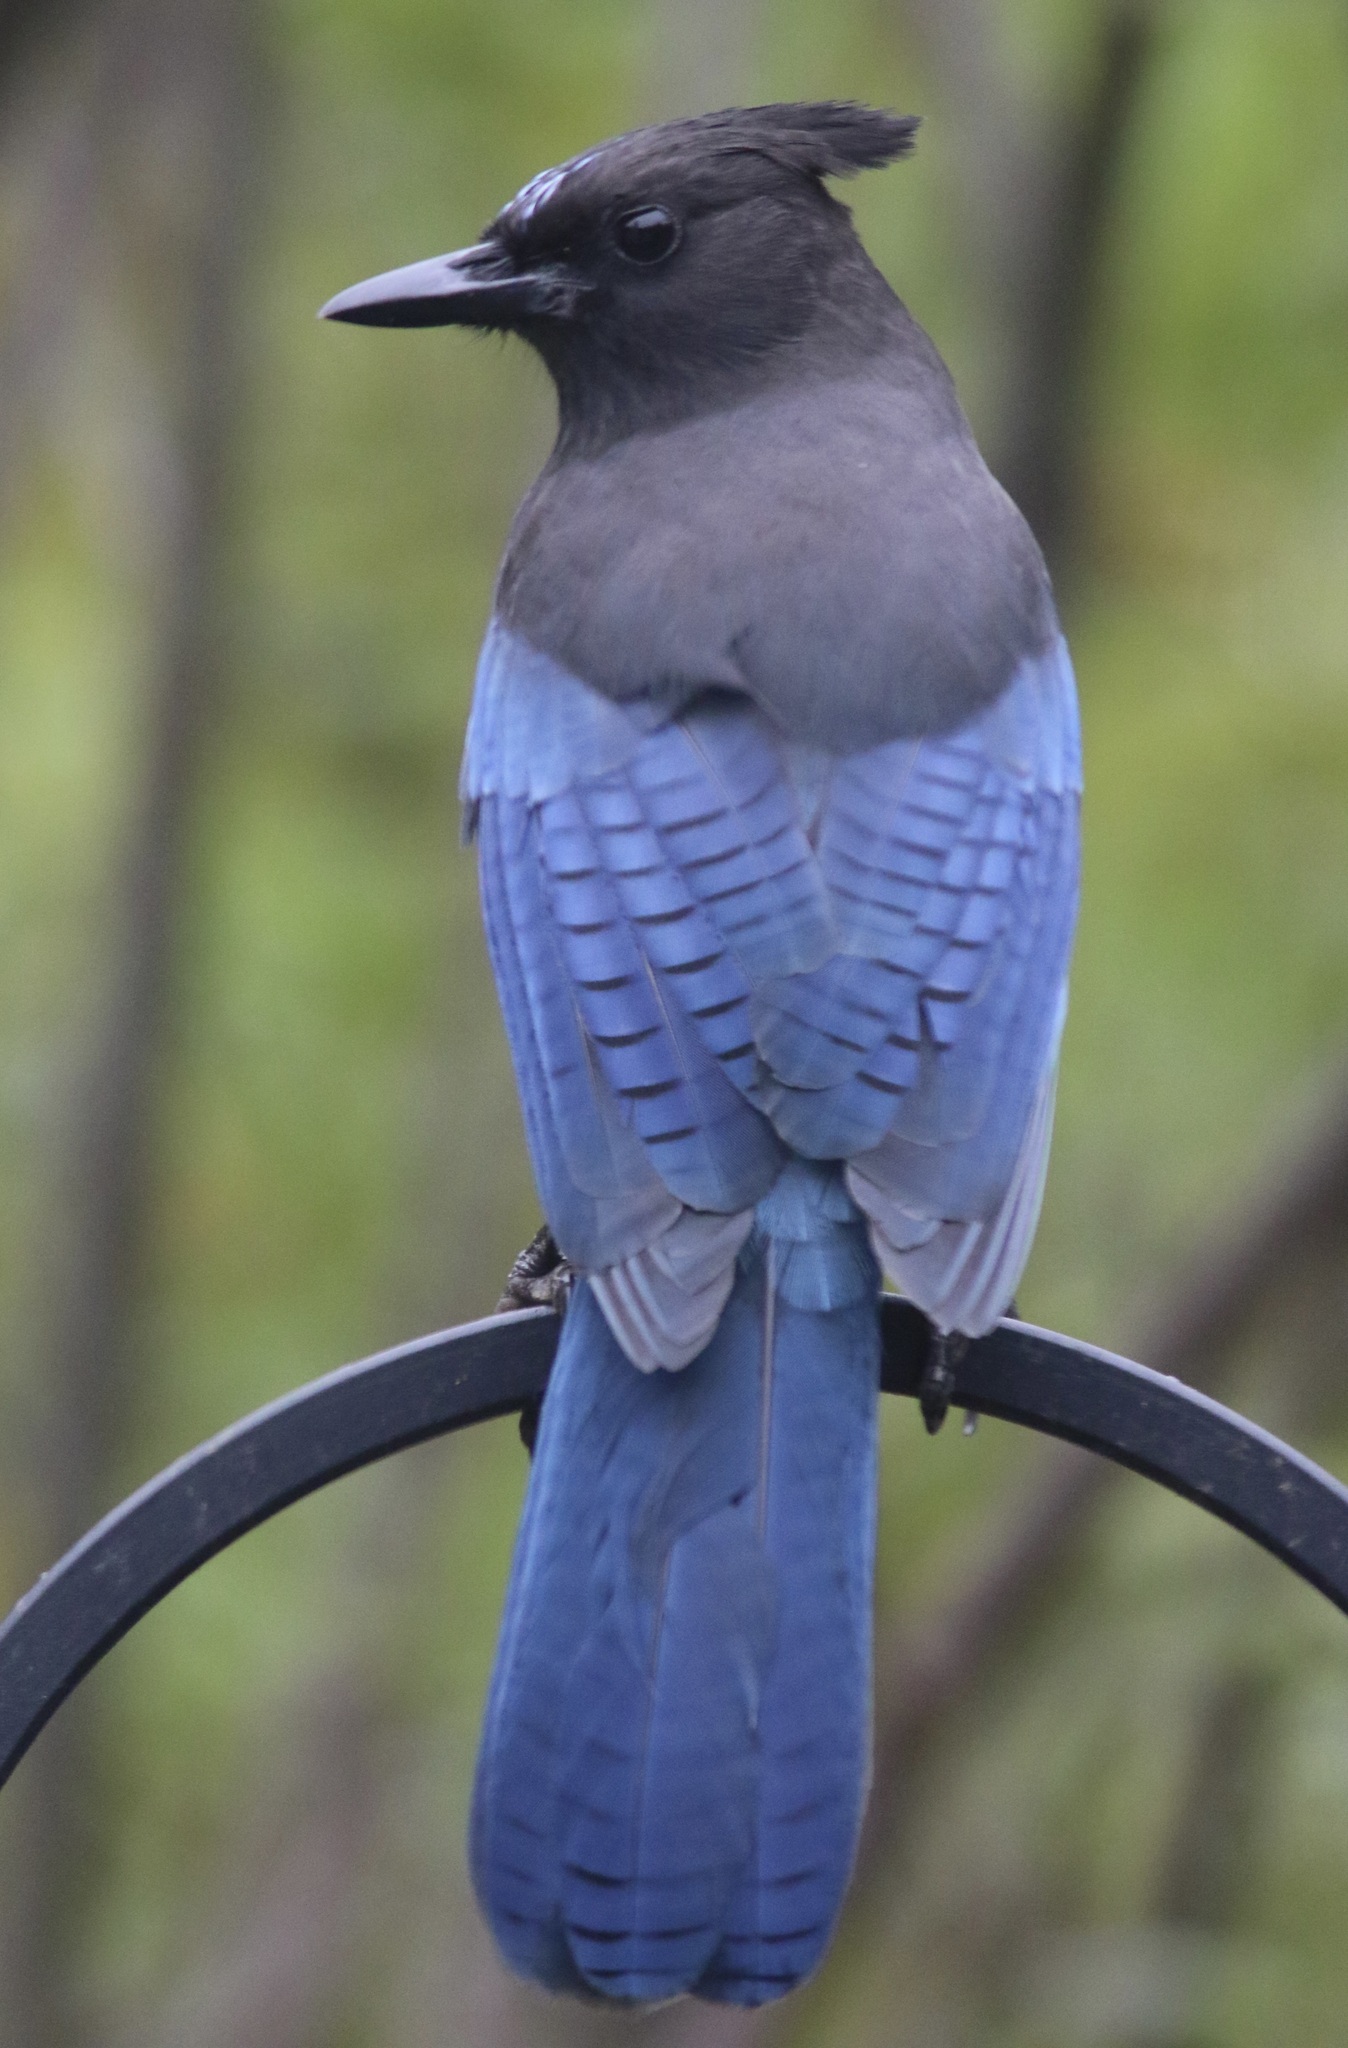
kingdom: Animalia
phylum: Chordata
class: Aves
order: Passeriformes
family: Corvidae
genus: Cyanocitta
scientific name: Cyanocitta stelleri
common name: Steller's jay
